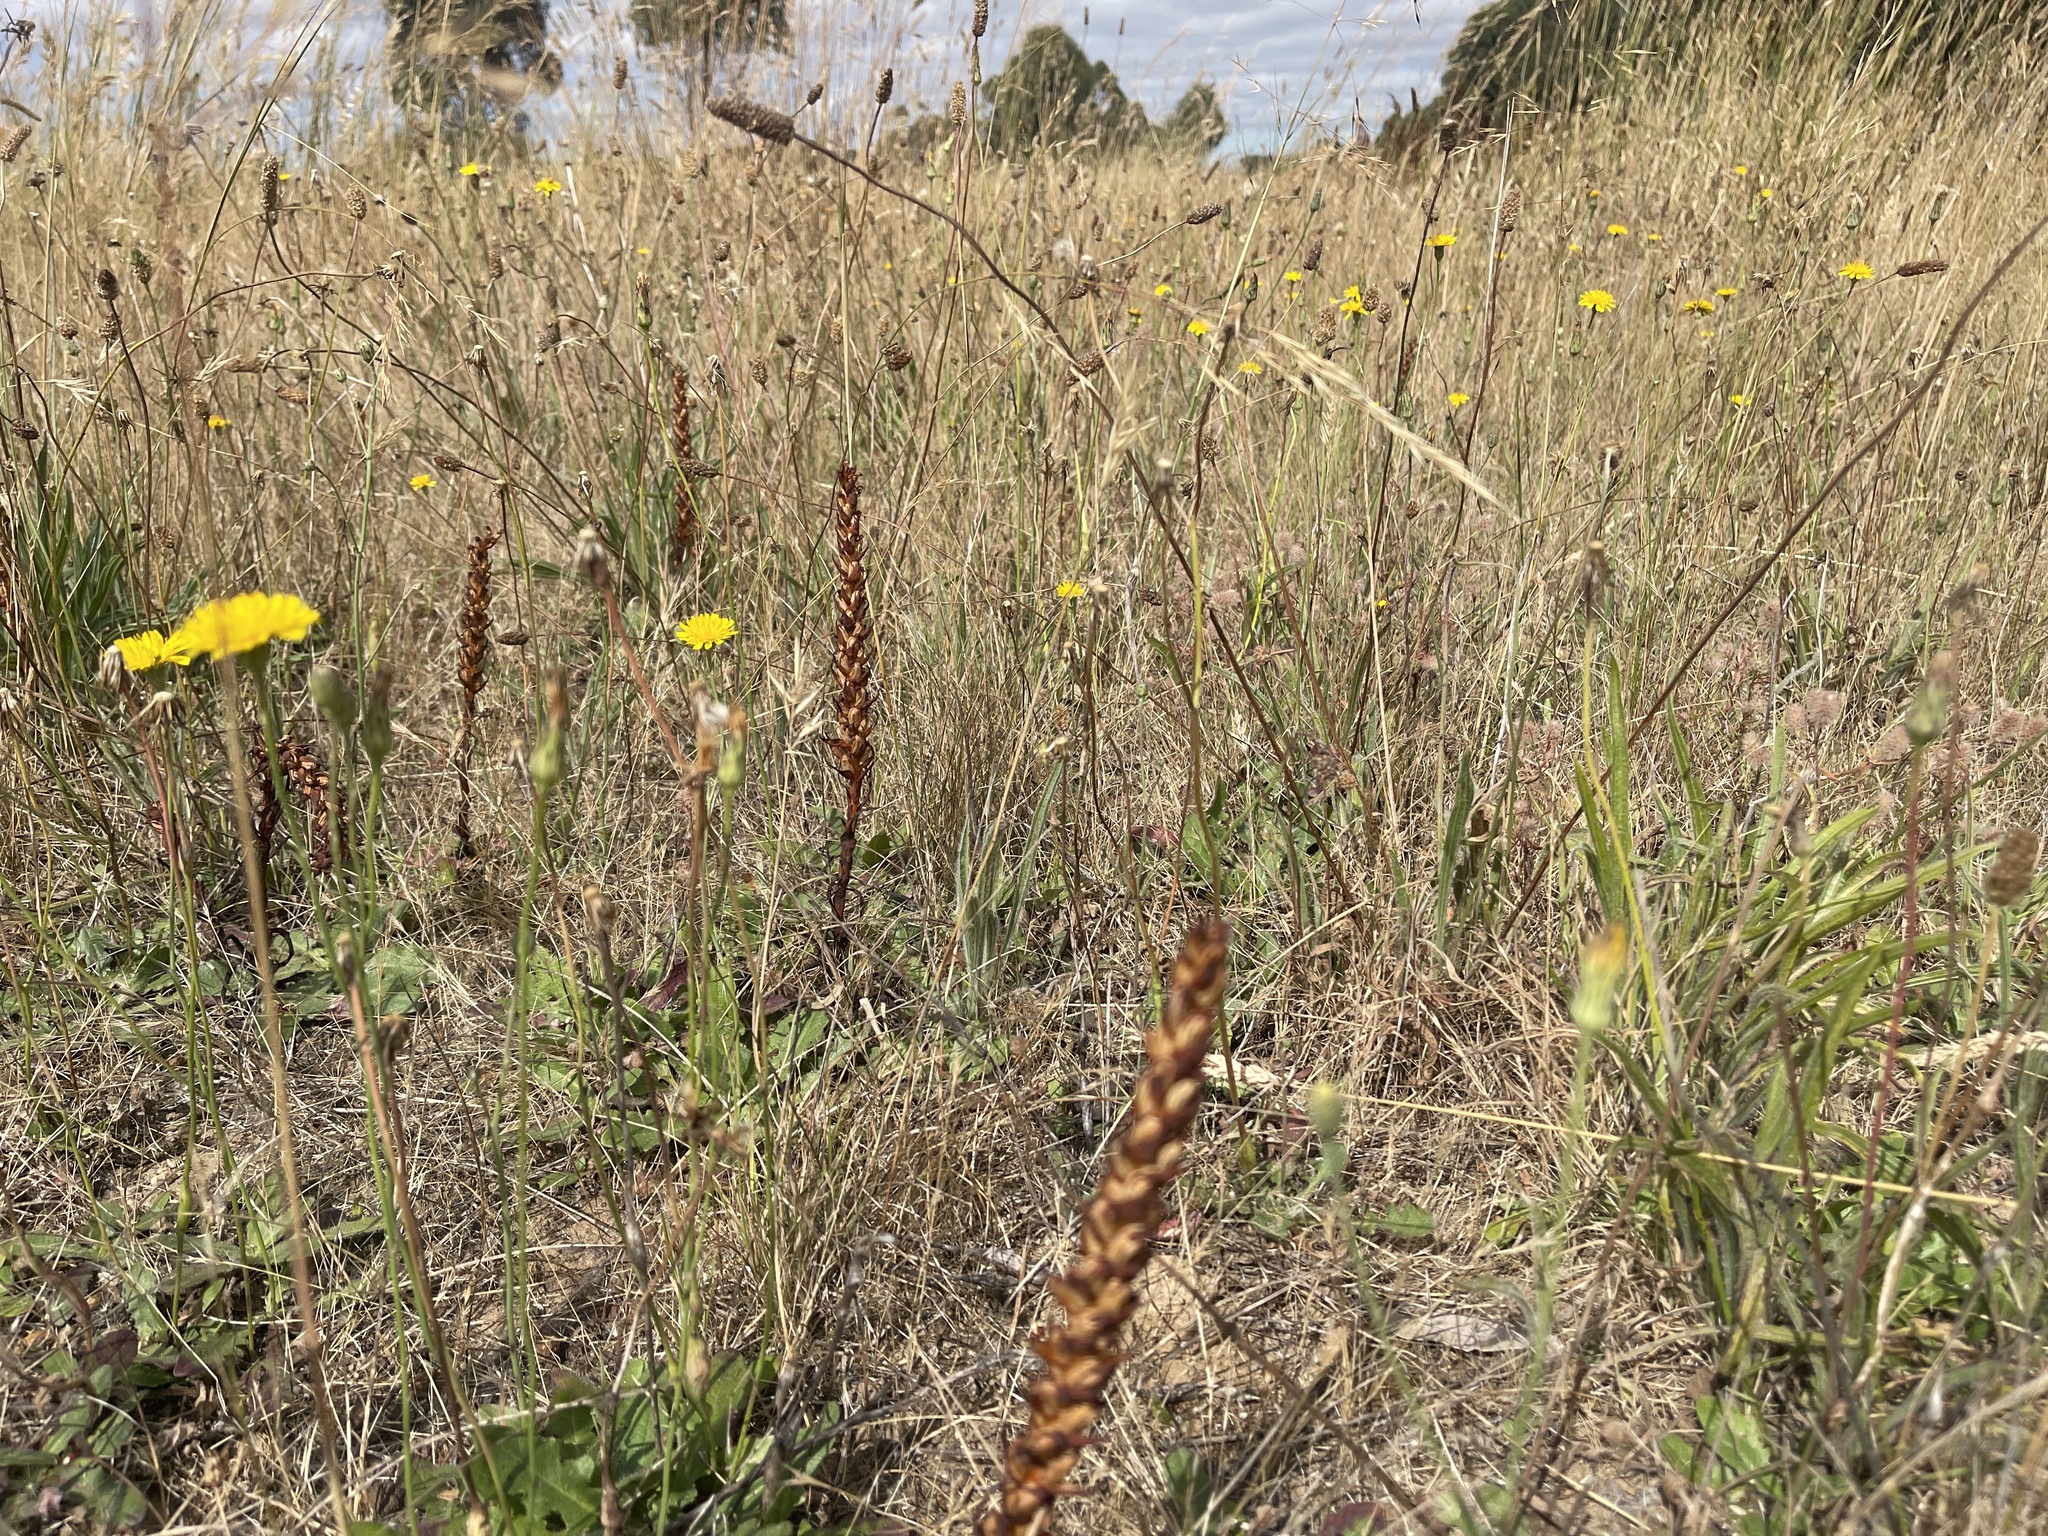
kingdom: Plantae
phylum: Tracheophyta
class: Liliopsida
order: Asparagales
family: Orchidaceae
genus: Disa
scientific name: Disa bracteata
